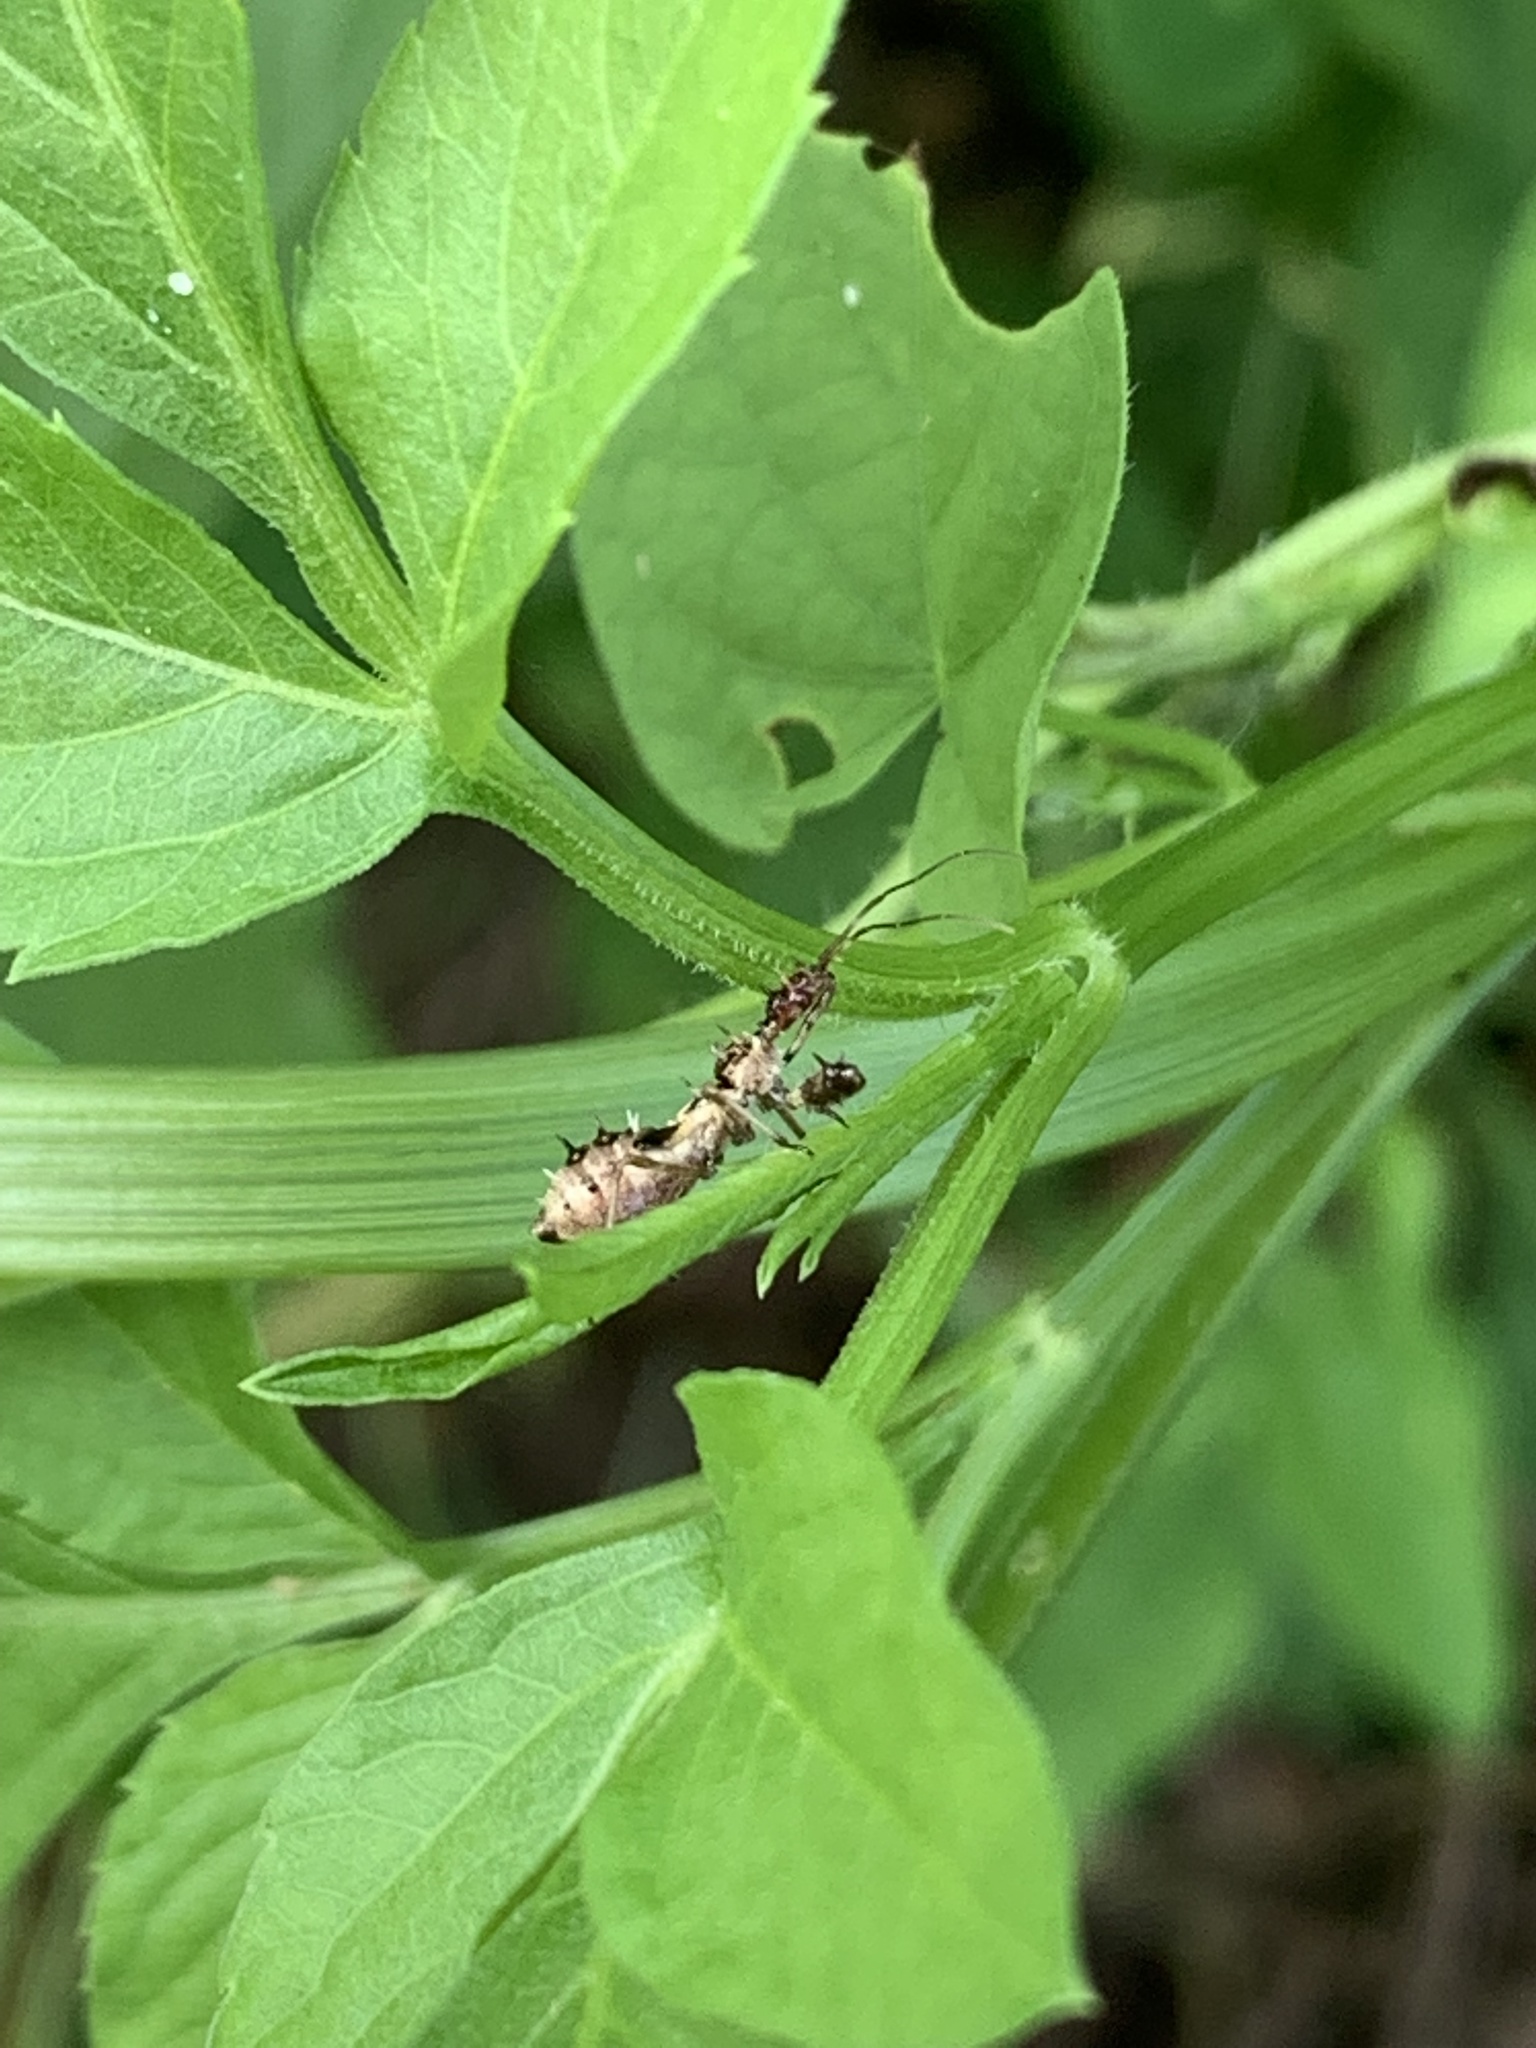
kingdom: Animalia
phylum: Arthropoda
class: Insecta
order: Hemiptera
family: Reduviidae
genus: Scipinia
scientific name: Scipinia horrida
